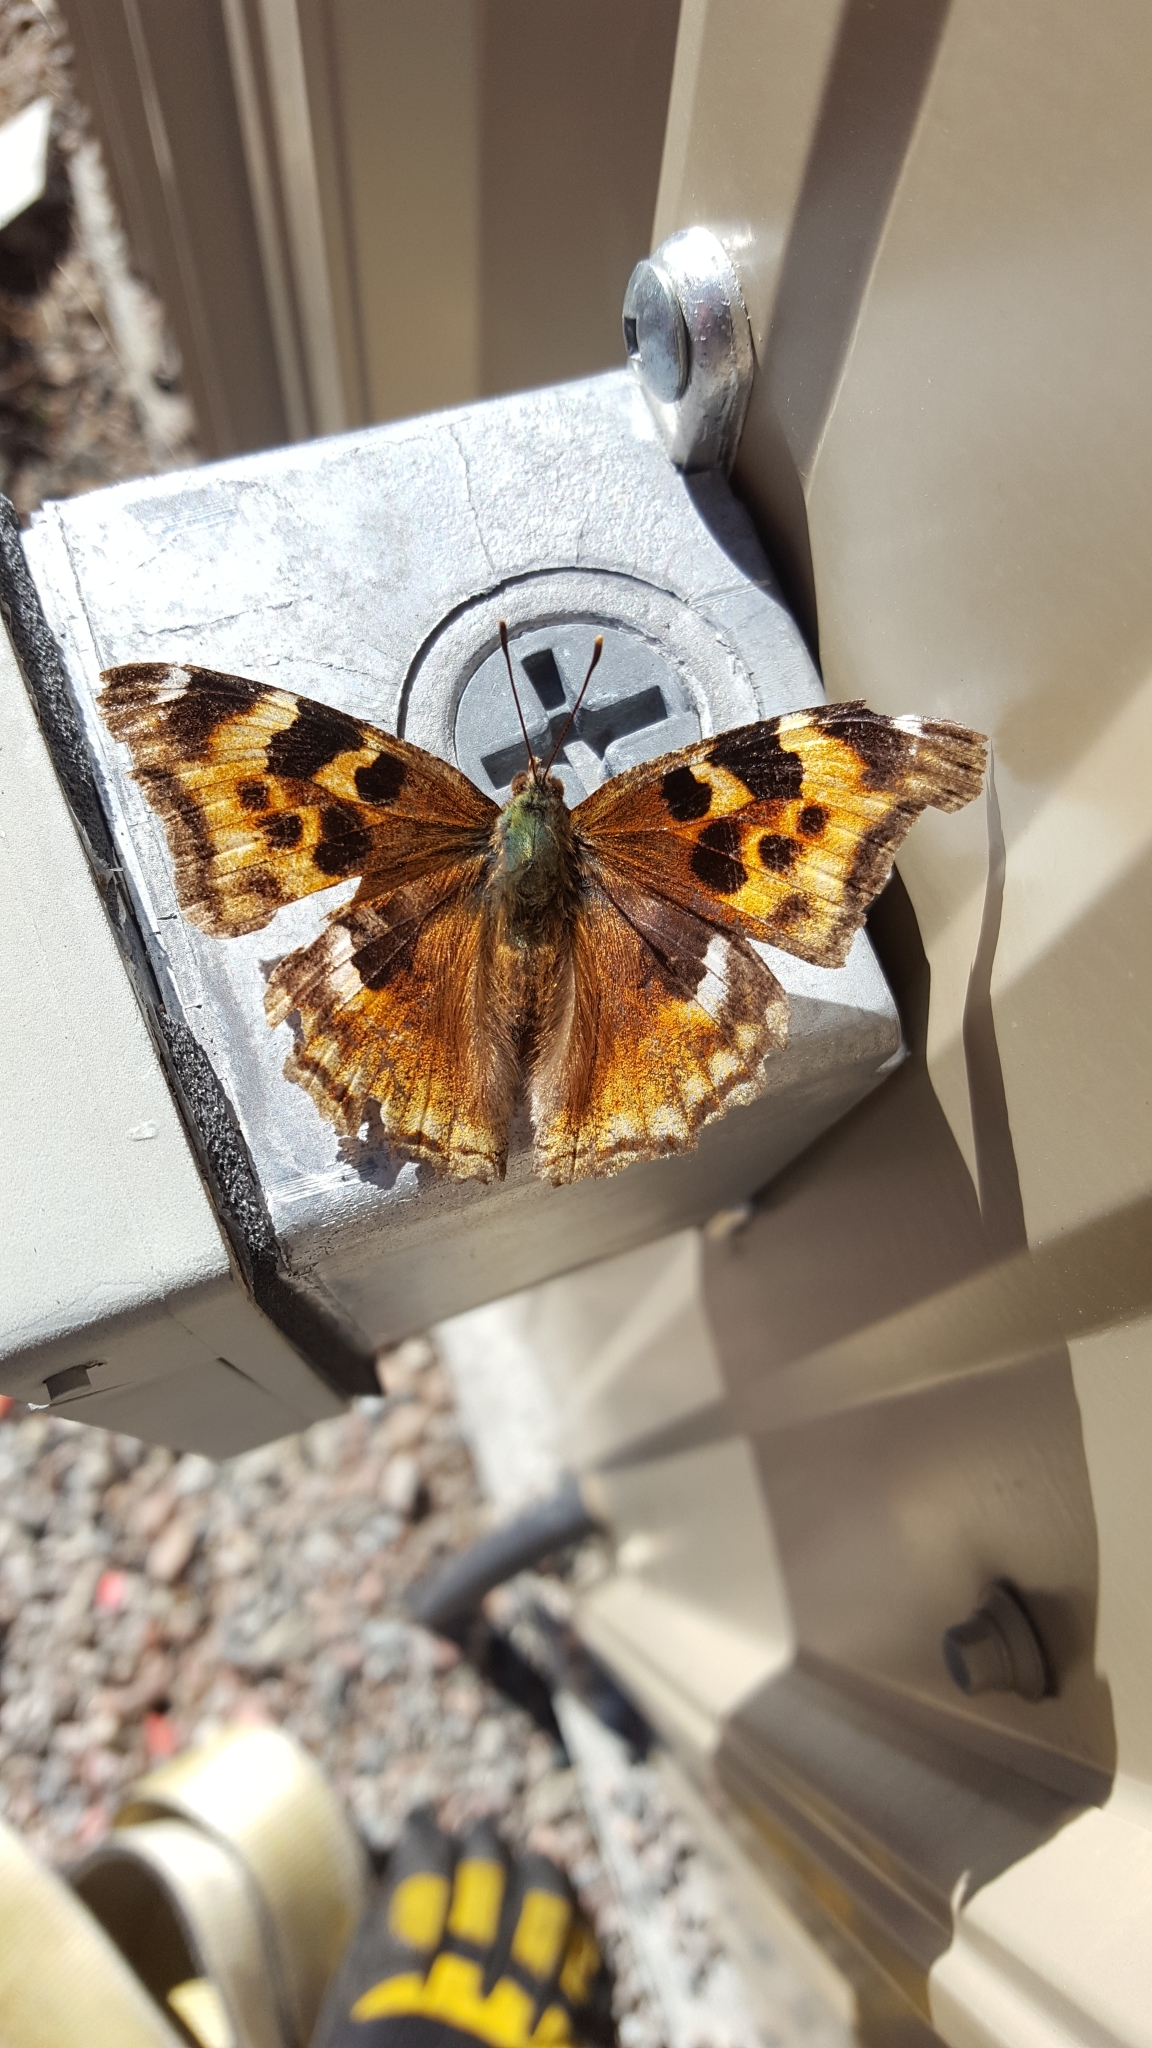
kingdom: Animalia
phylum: Arthropoda
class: Insecta
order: Lepidoptera
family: Nymphalidae
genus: Polygonia
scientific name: Polygonia vaualbum
